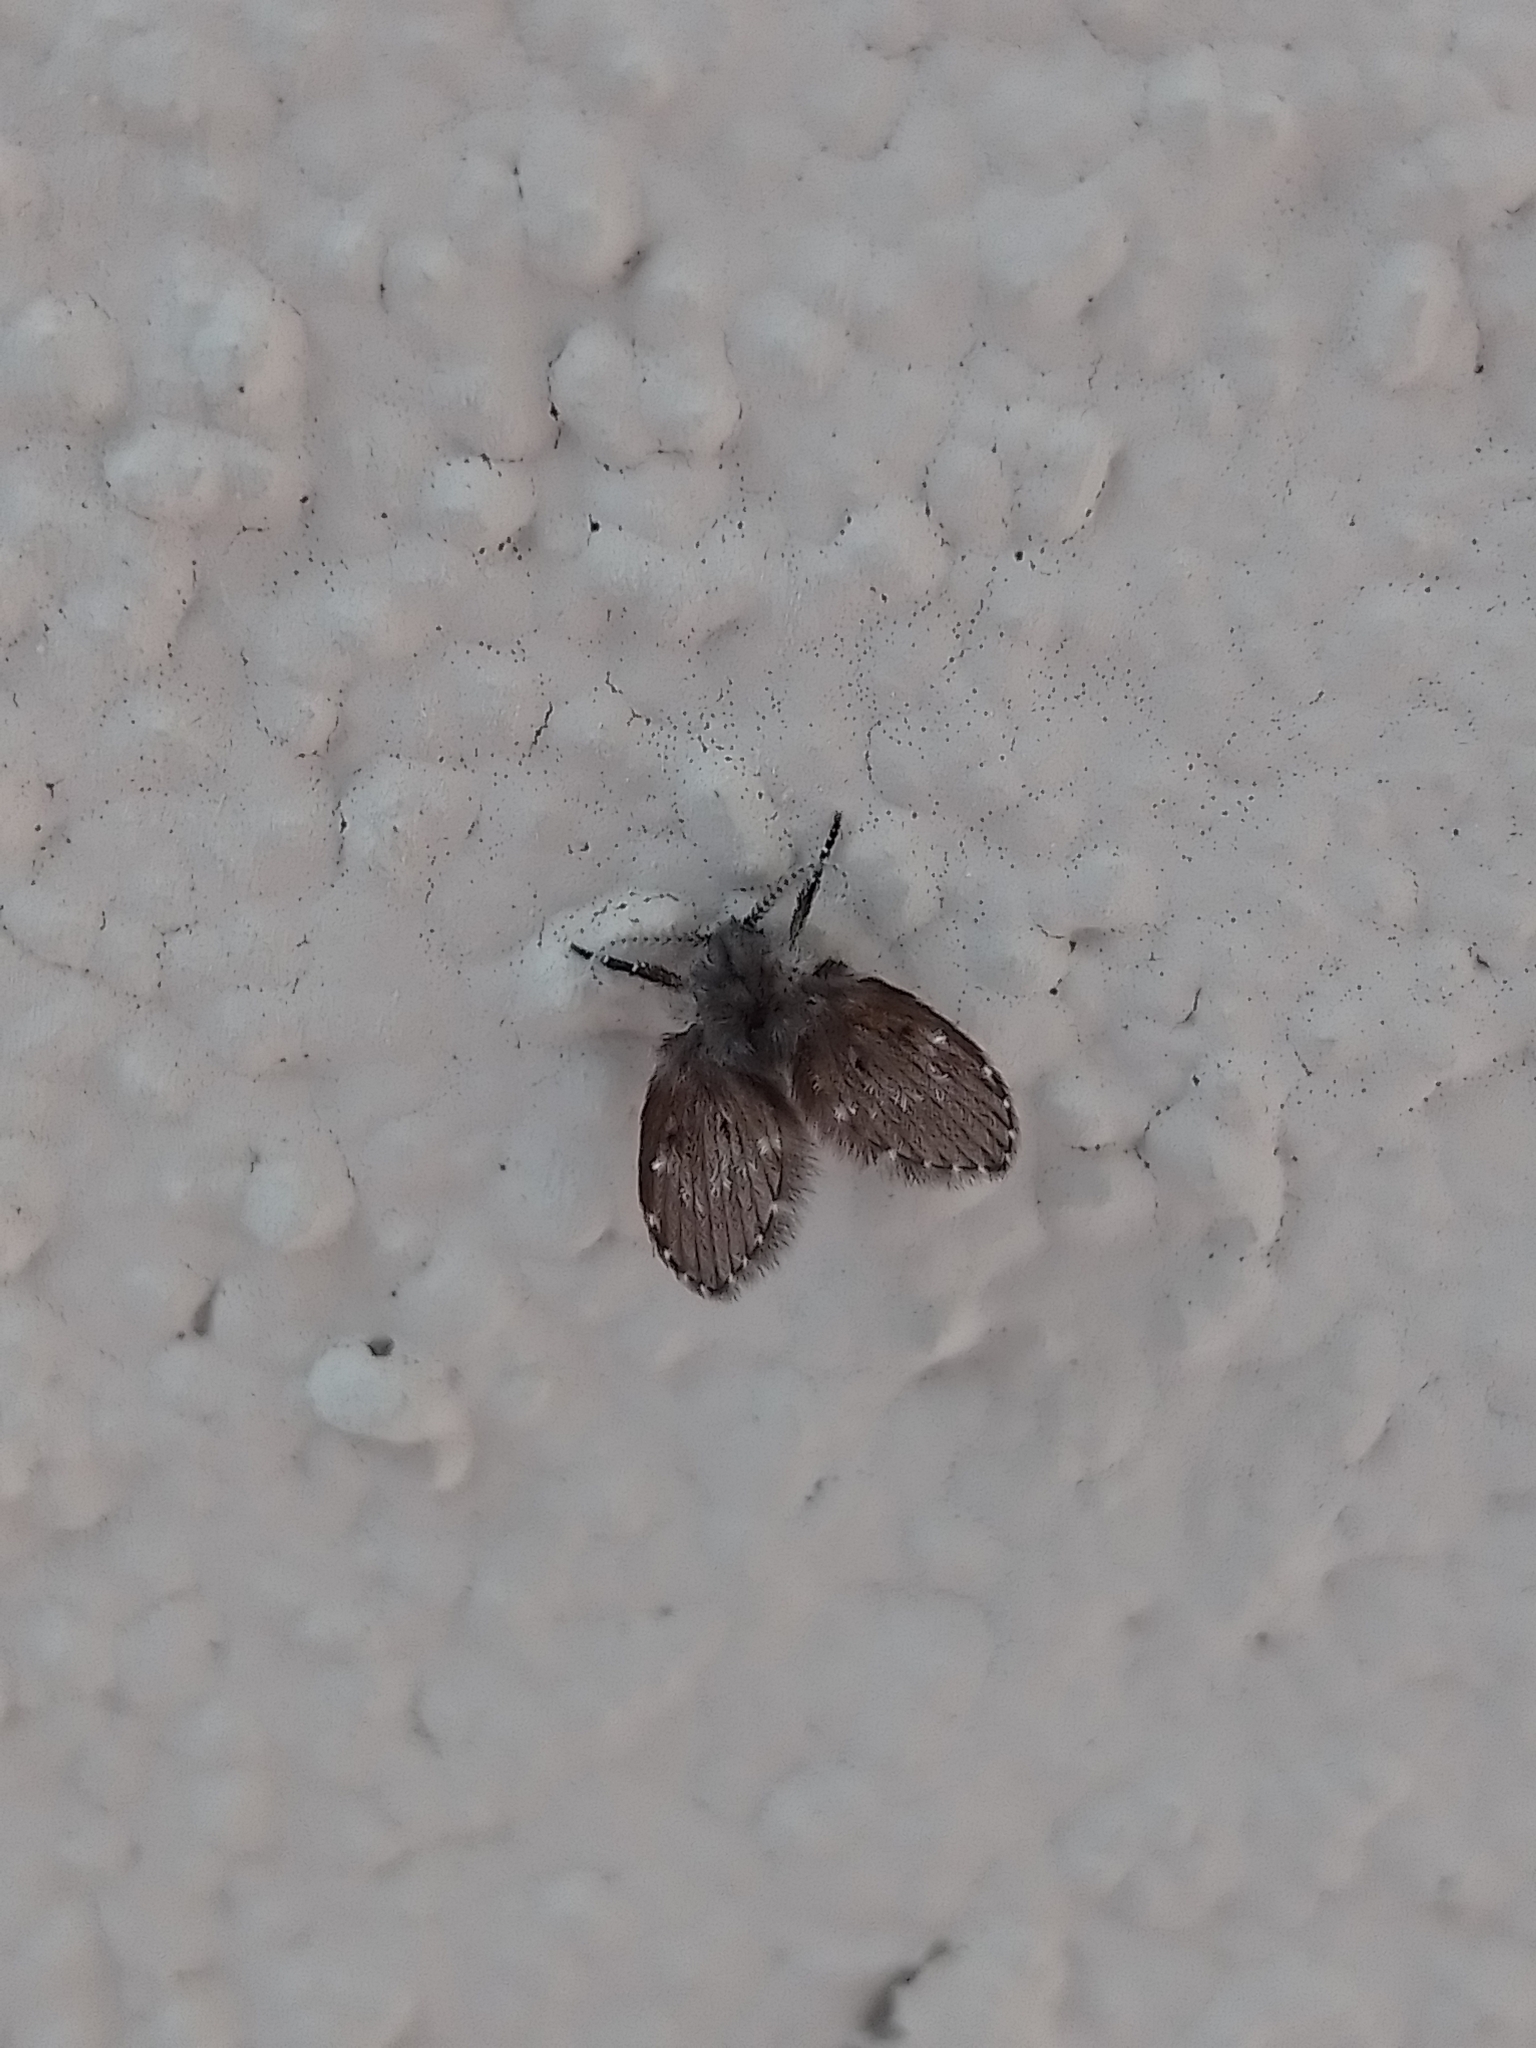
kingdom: Animalia
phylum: Arthropoda
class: Insecta
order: Diptera
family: Psychodidae
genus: Clogmia
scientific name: Clogmia albipunctatus
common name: White-spotted moth fly
